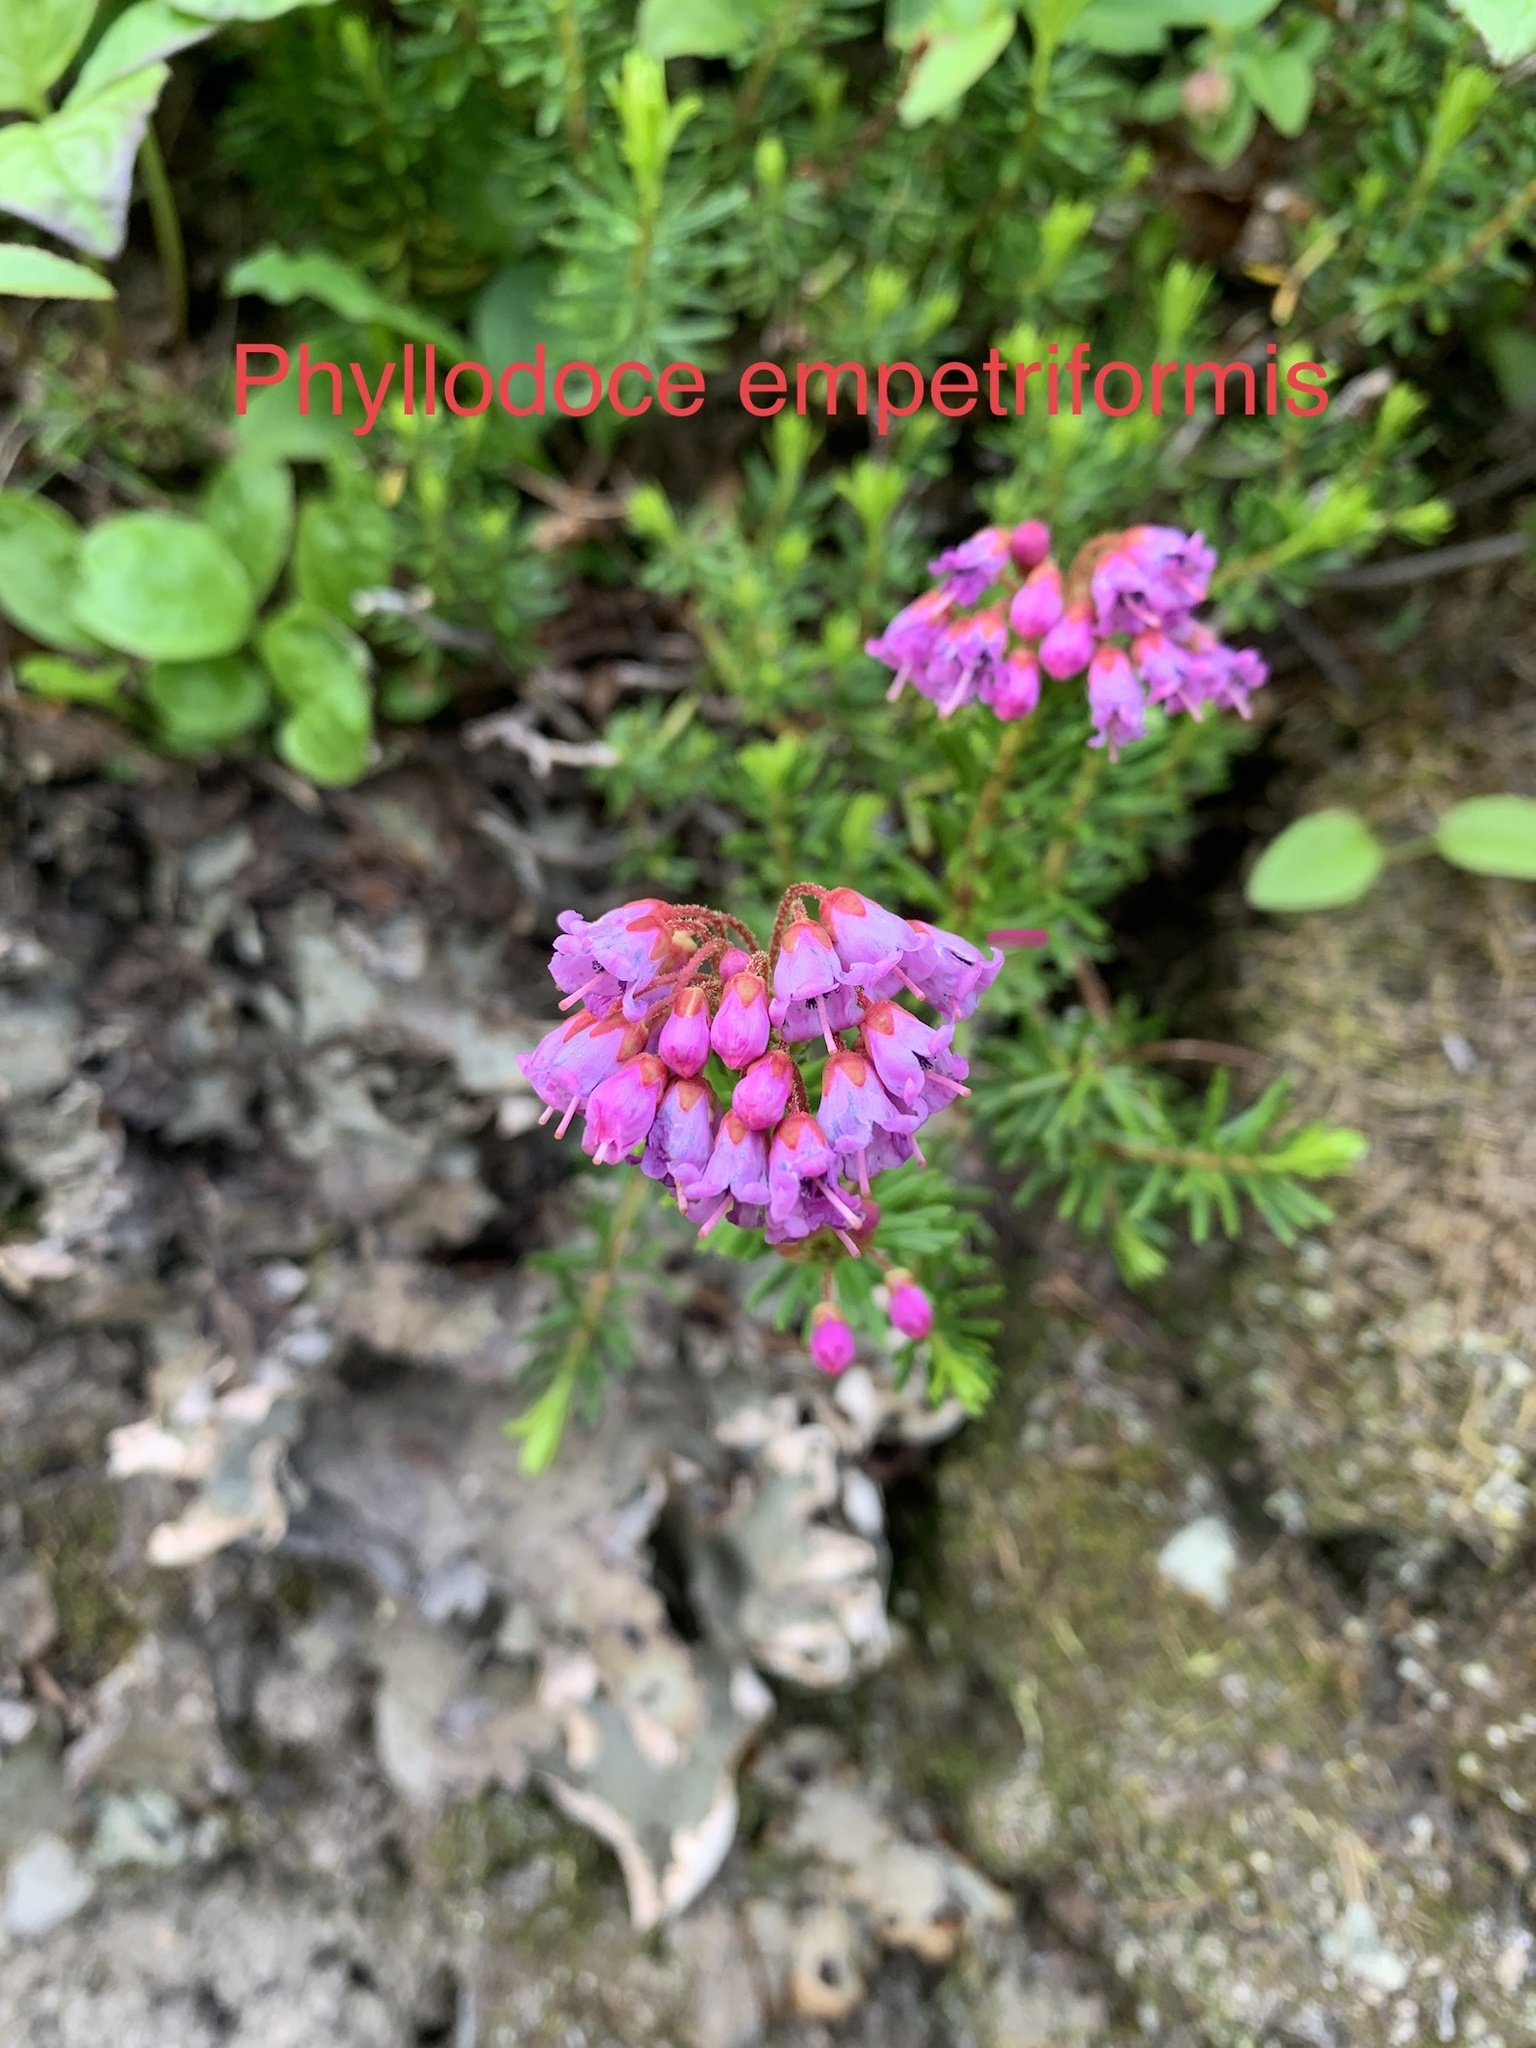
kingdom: Plantae
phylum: Tracheophyta
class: Magnoliopsida
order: Ericales
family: Ericaceae
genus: Phyllodoce
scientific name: Phyllodoce empetriformis
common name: Pink mountain heather
